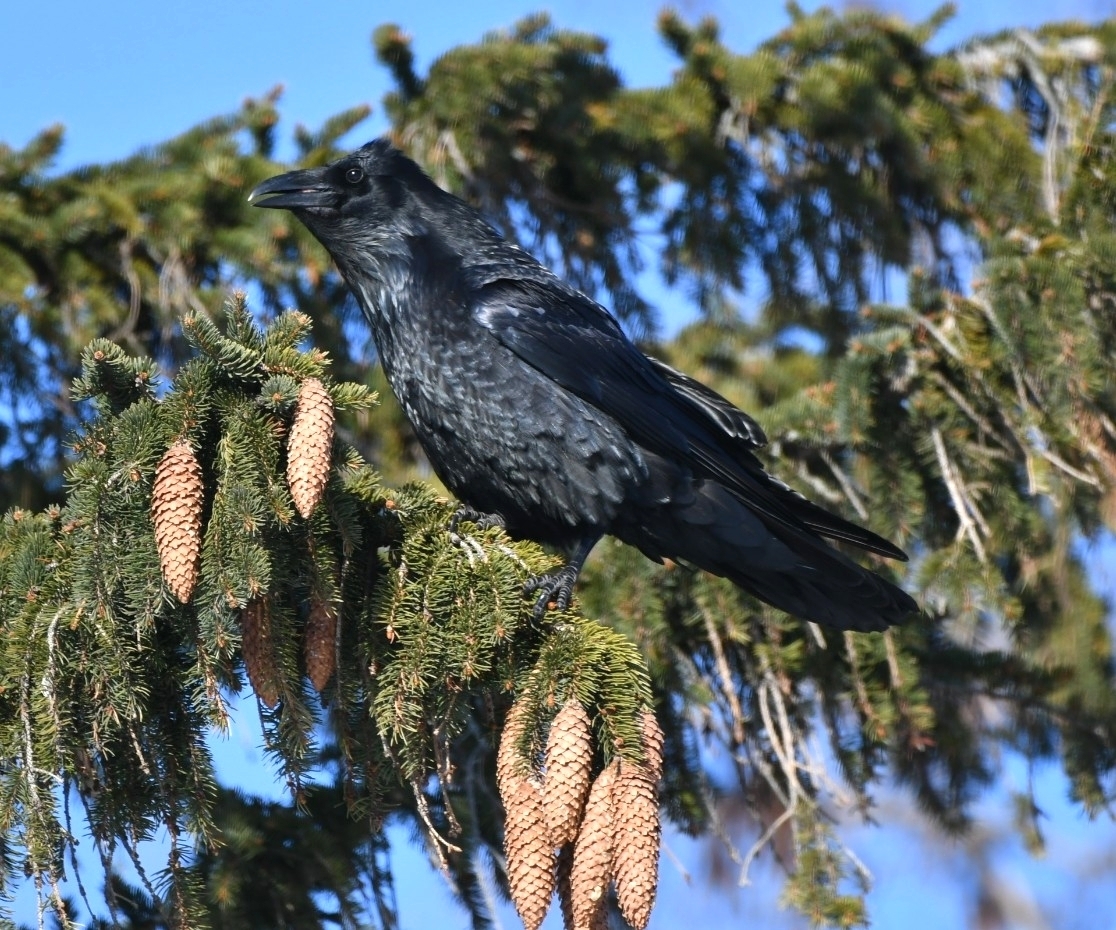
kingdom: Animalia
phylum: Chordata
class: Aves
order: Passeriformes
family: Corvidae
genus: Corvus
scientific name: Corvus corax
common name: Common raven
